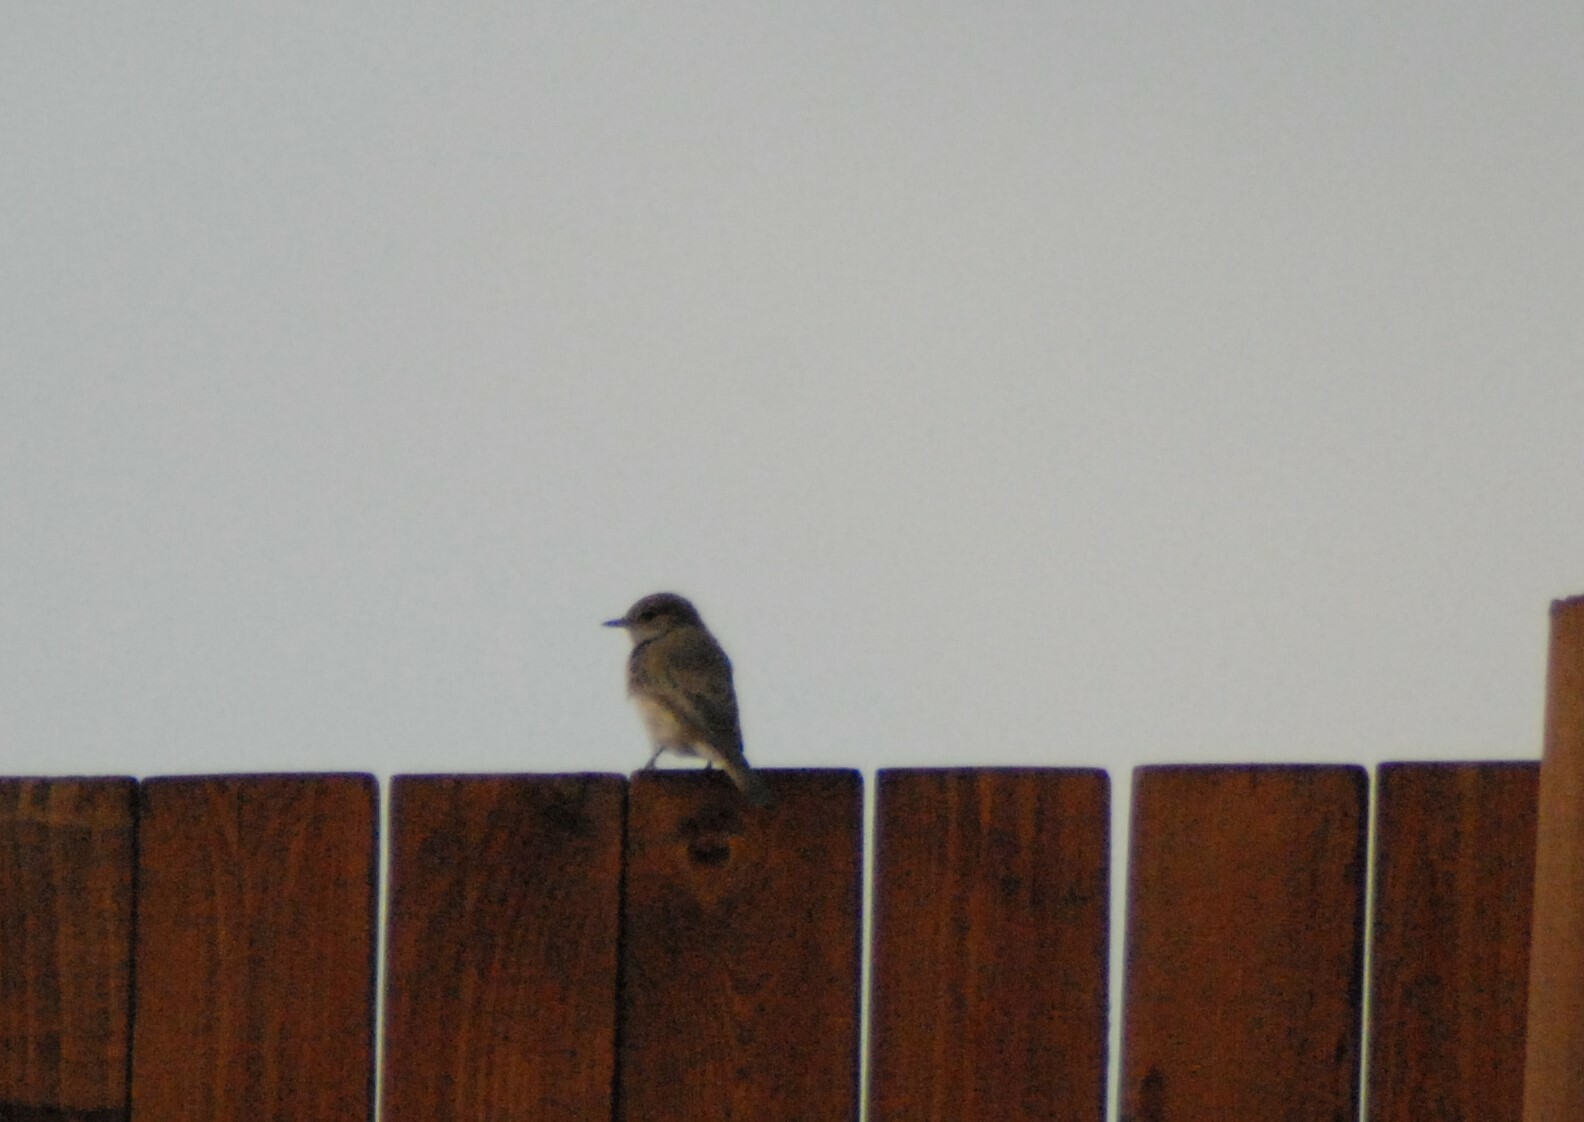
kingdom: Animalia
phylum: Chordata
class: Aves
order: Passeriformes
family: Muscicapidae
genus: Muscicapa
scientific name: Muscicapa striata
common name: Spotted flycatcher
